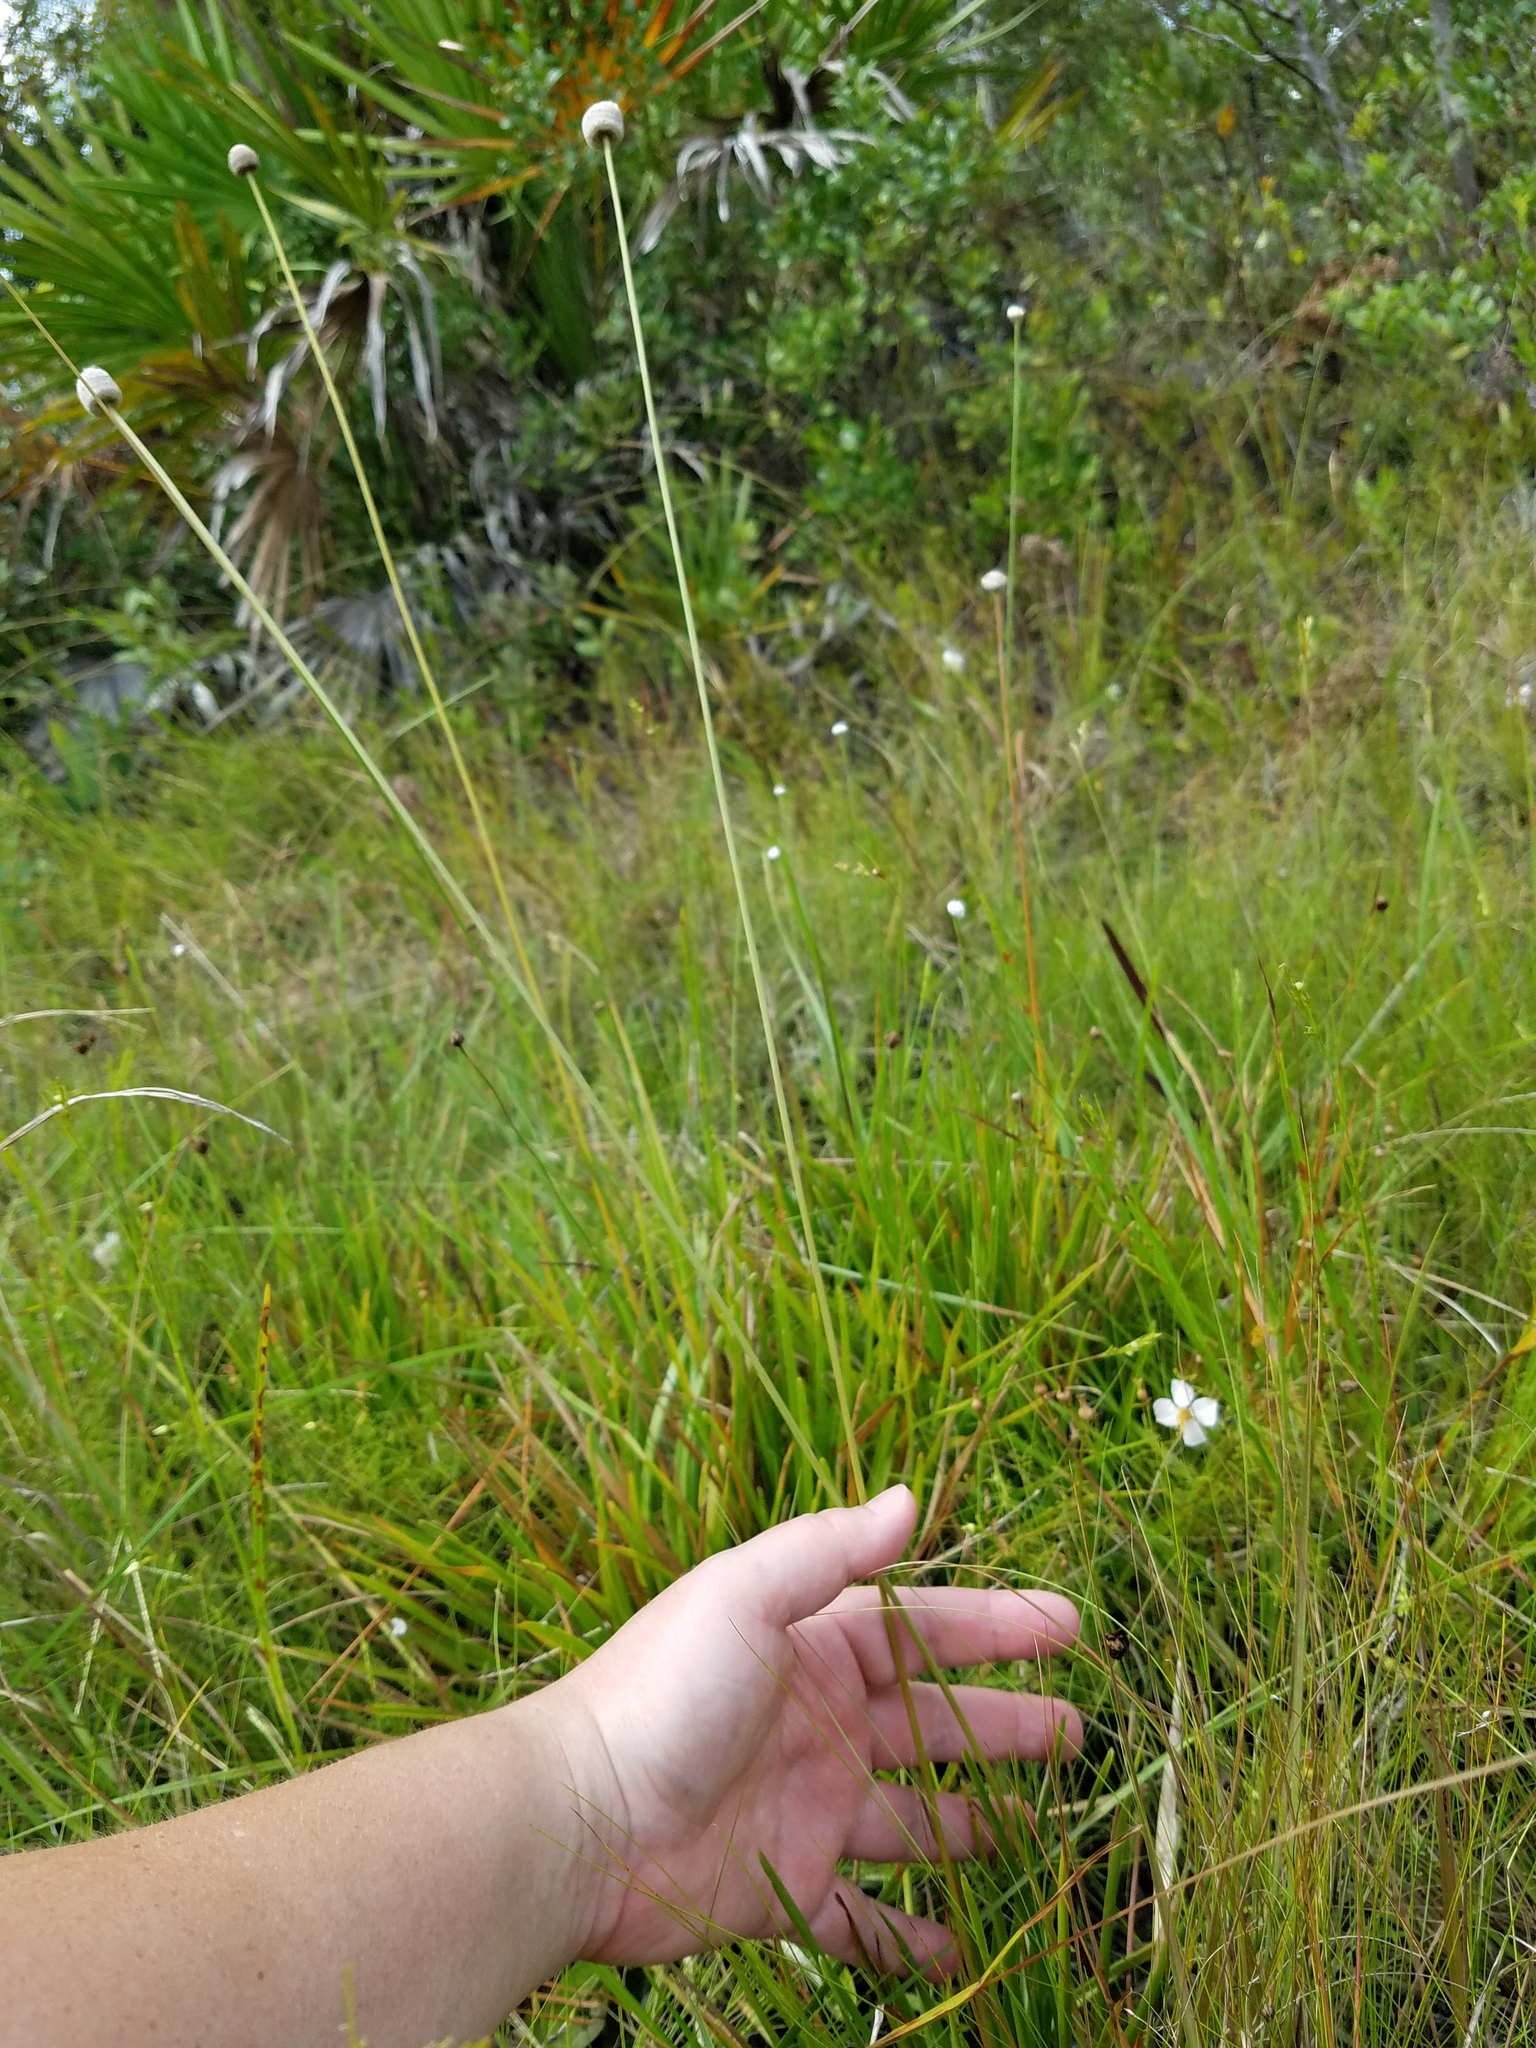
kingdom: Plantae
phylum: Tracheophyta
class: Liliopsida
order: Poales
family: Eriocaulaceae
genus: Eriocaulon
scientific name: Eriocaulon decangulare
